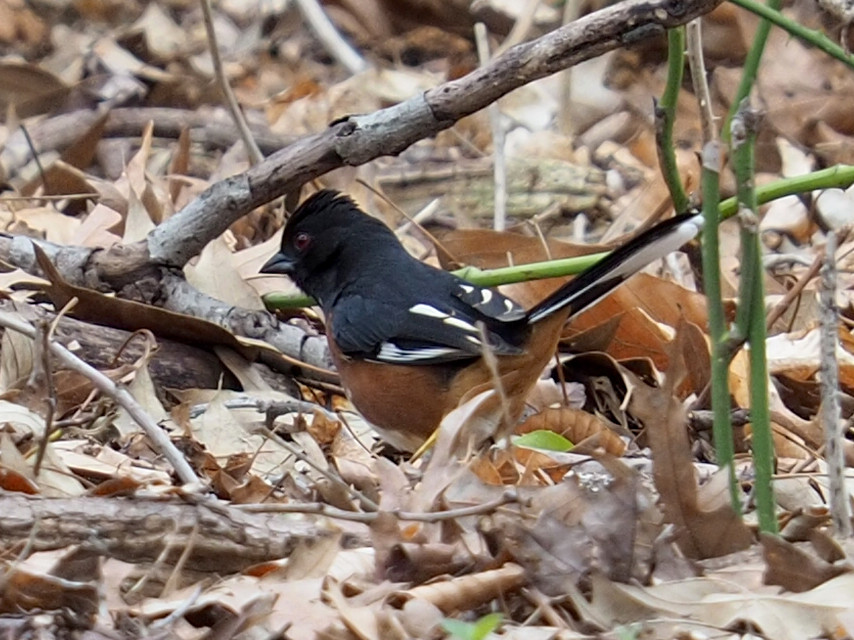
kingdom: Animalia
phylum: Chordata
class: Aves
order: Passeriformes
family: Passerellidae
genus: Pipilo
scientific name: Pipilo erythrophthalmus
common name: Eastern towhee
